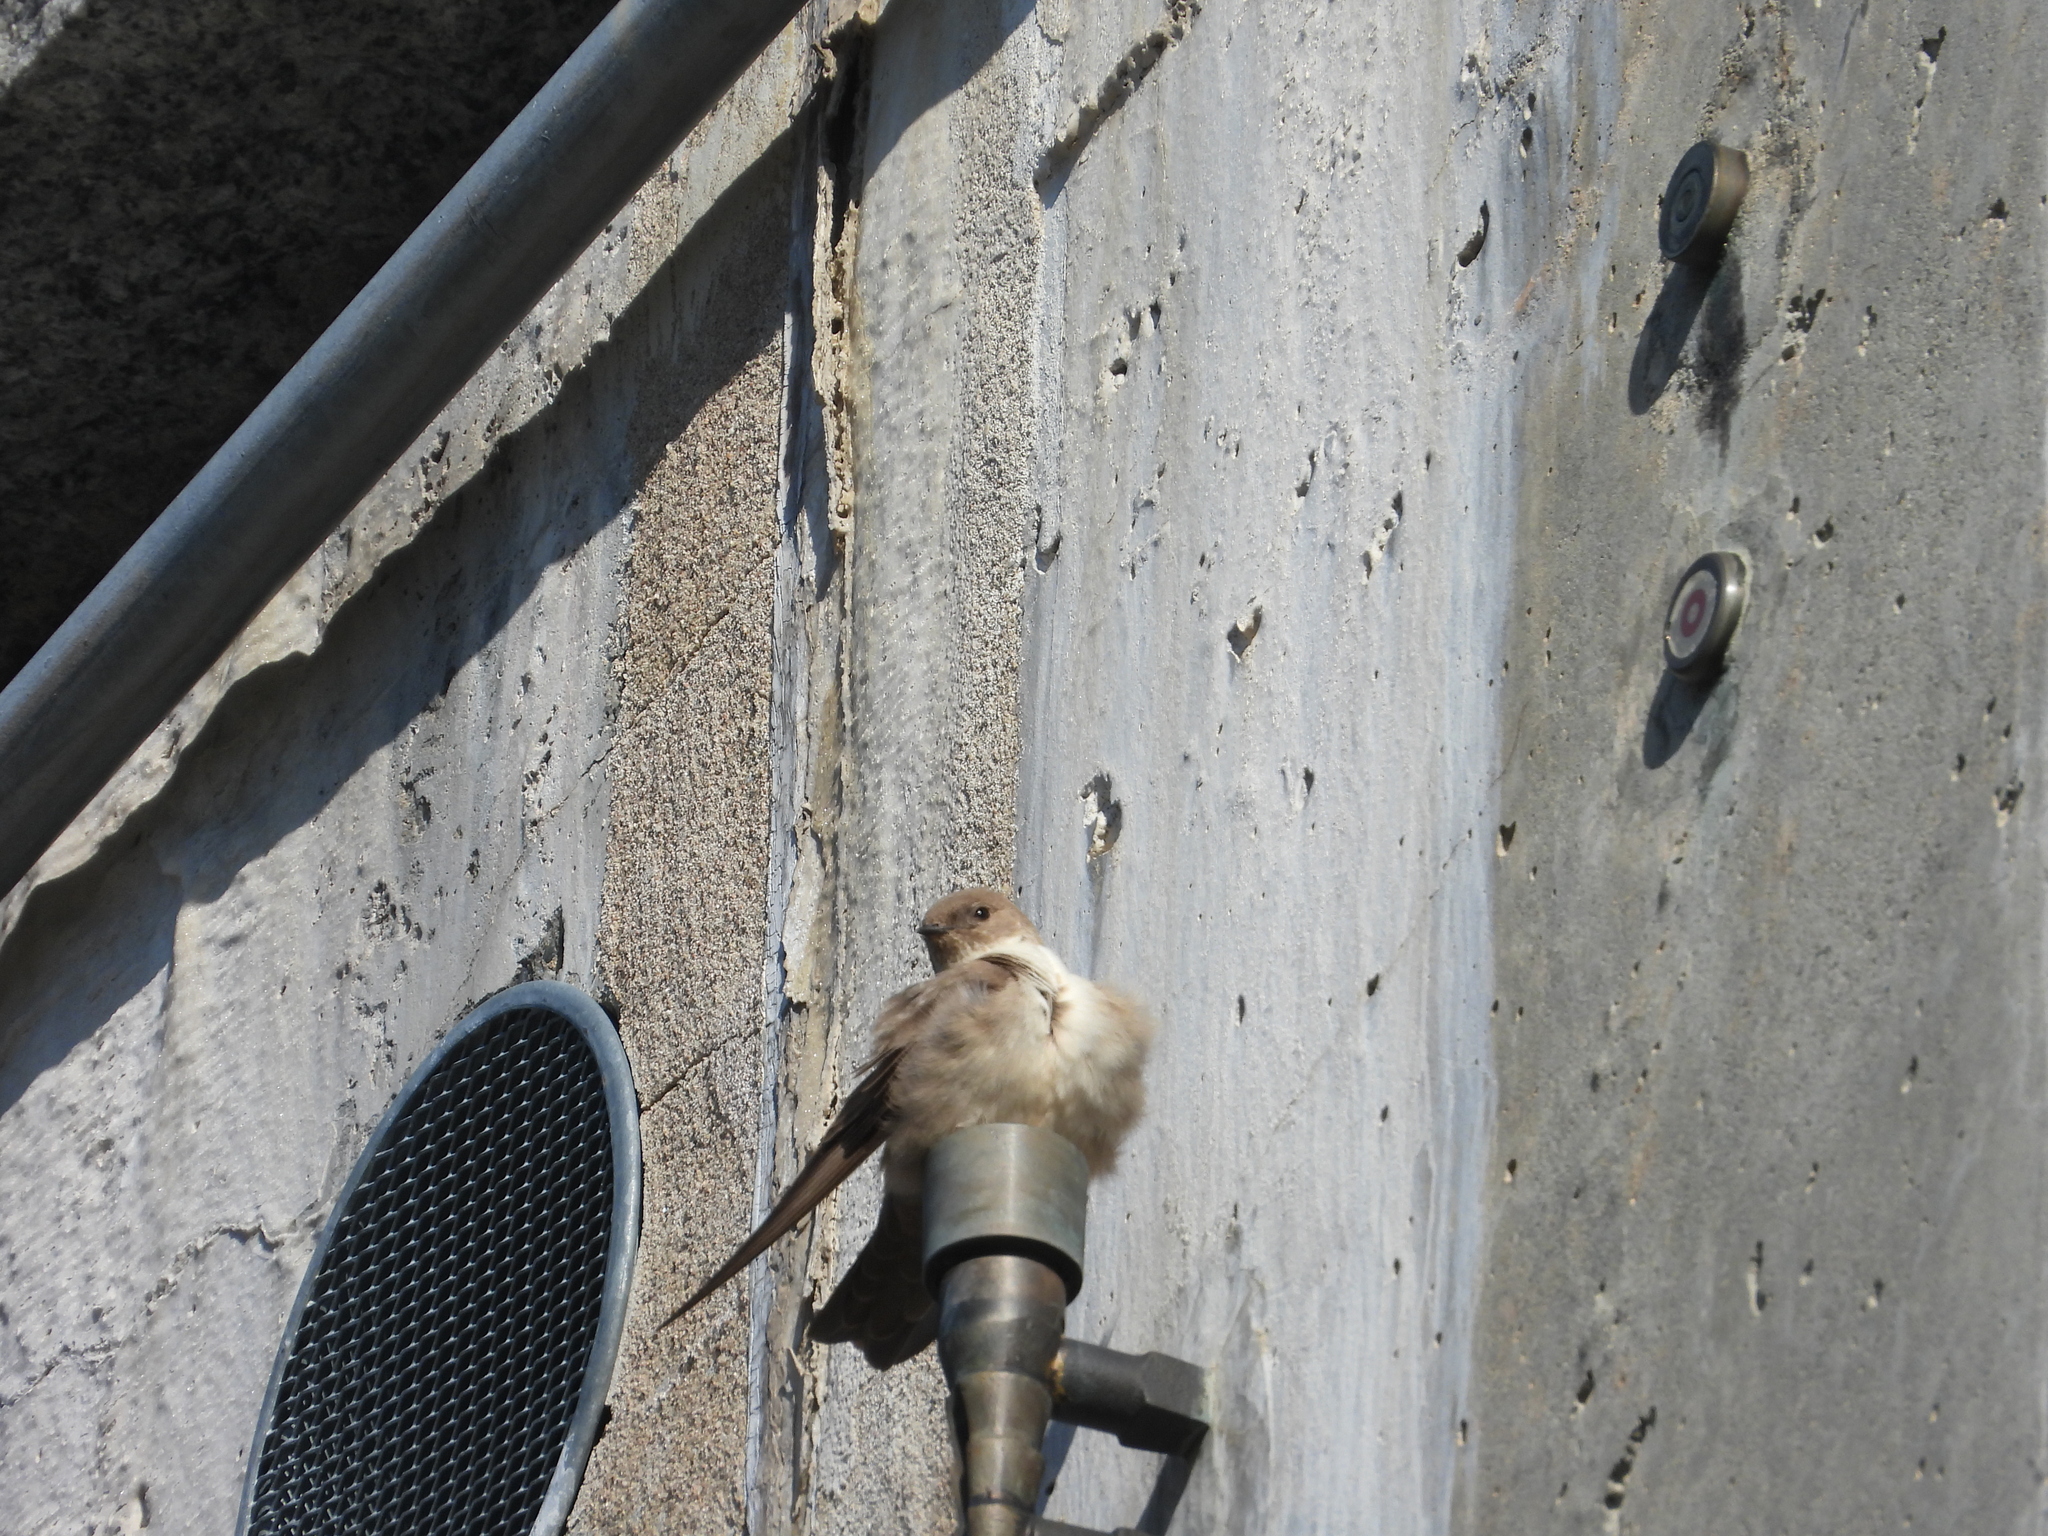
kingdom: Animalia
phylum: Chordata
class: Aves
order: Passeriformes
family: Hirundinidae
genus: Ptyonoprogne
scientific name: Ptyonoprogne rupestris
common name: Eurasian crag martin
